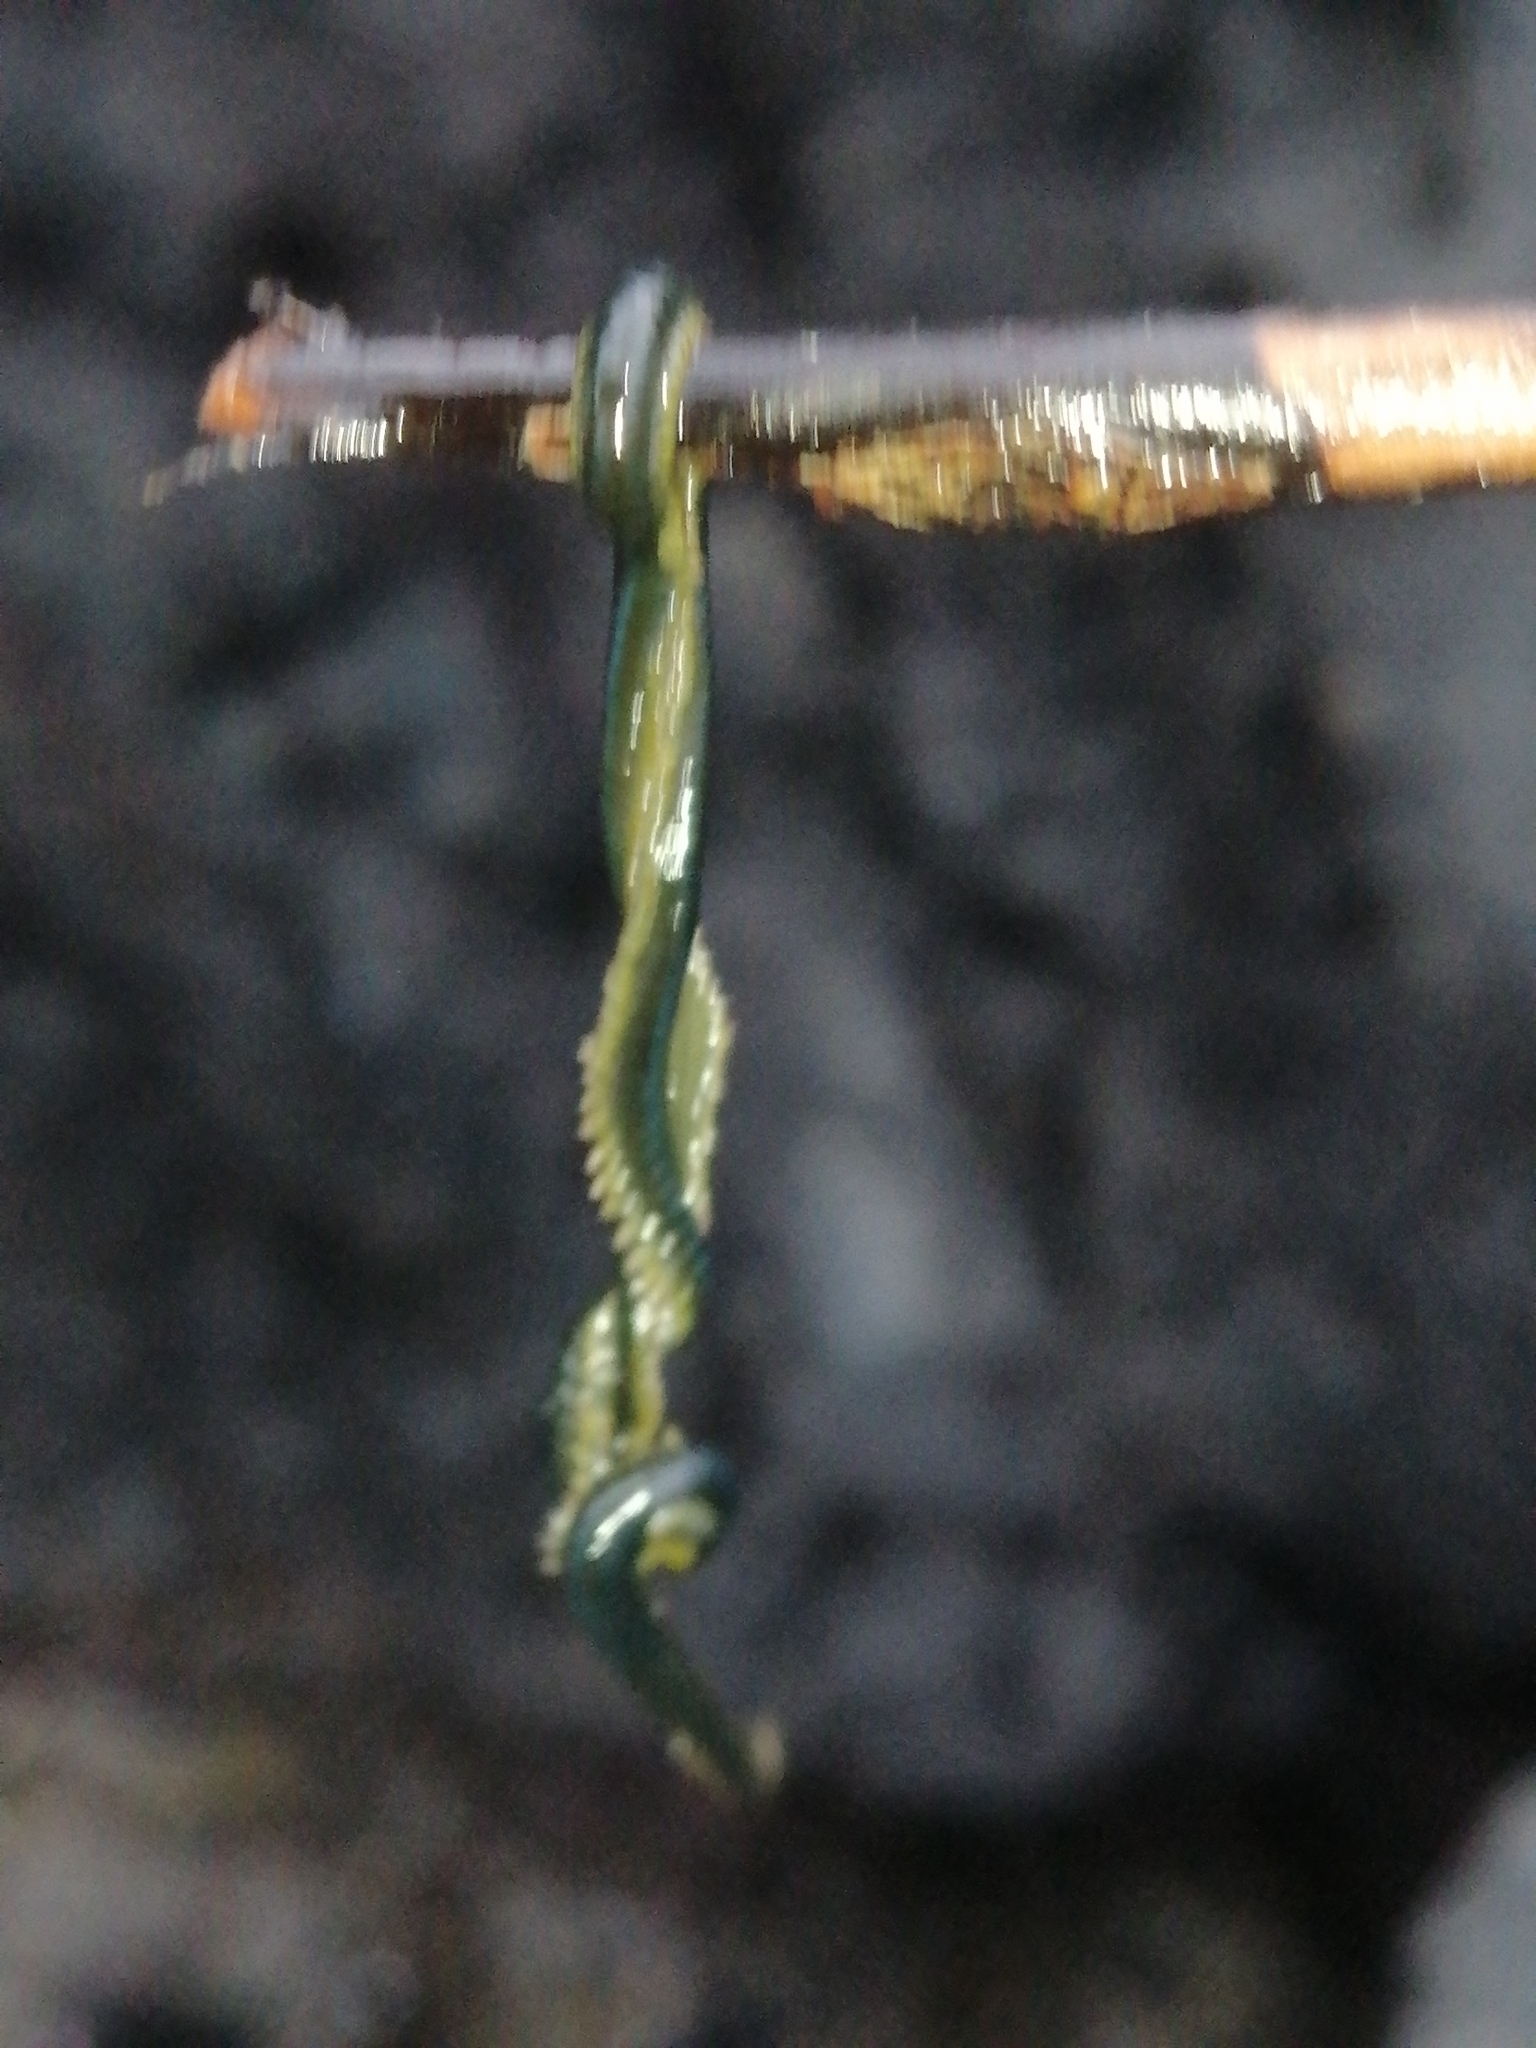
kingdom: Animalia
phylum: Annelida
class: Polychaeta
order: Phyllodocida
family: Phyllodocidae
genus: Eulalia
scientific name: Eulalia microphylla
